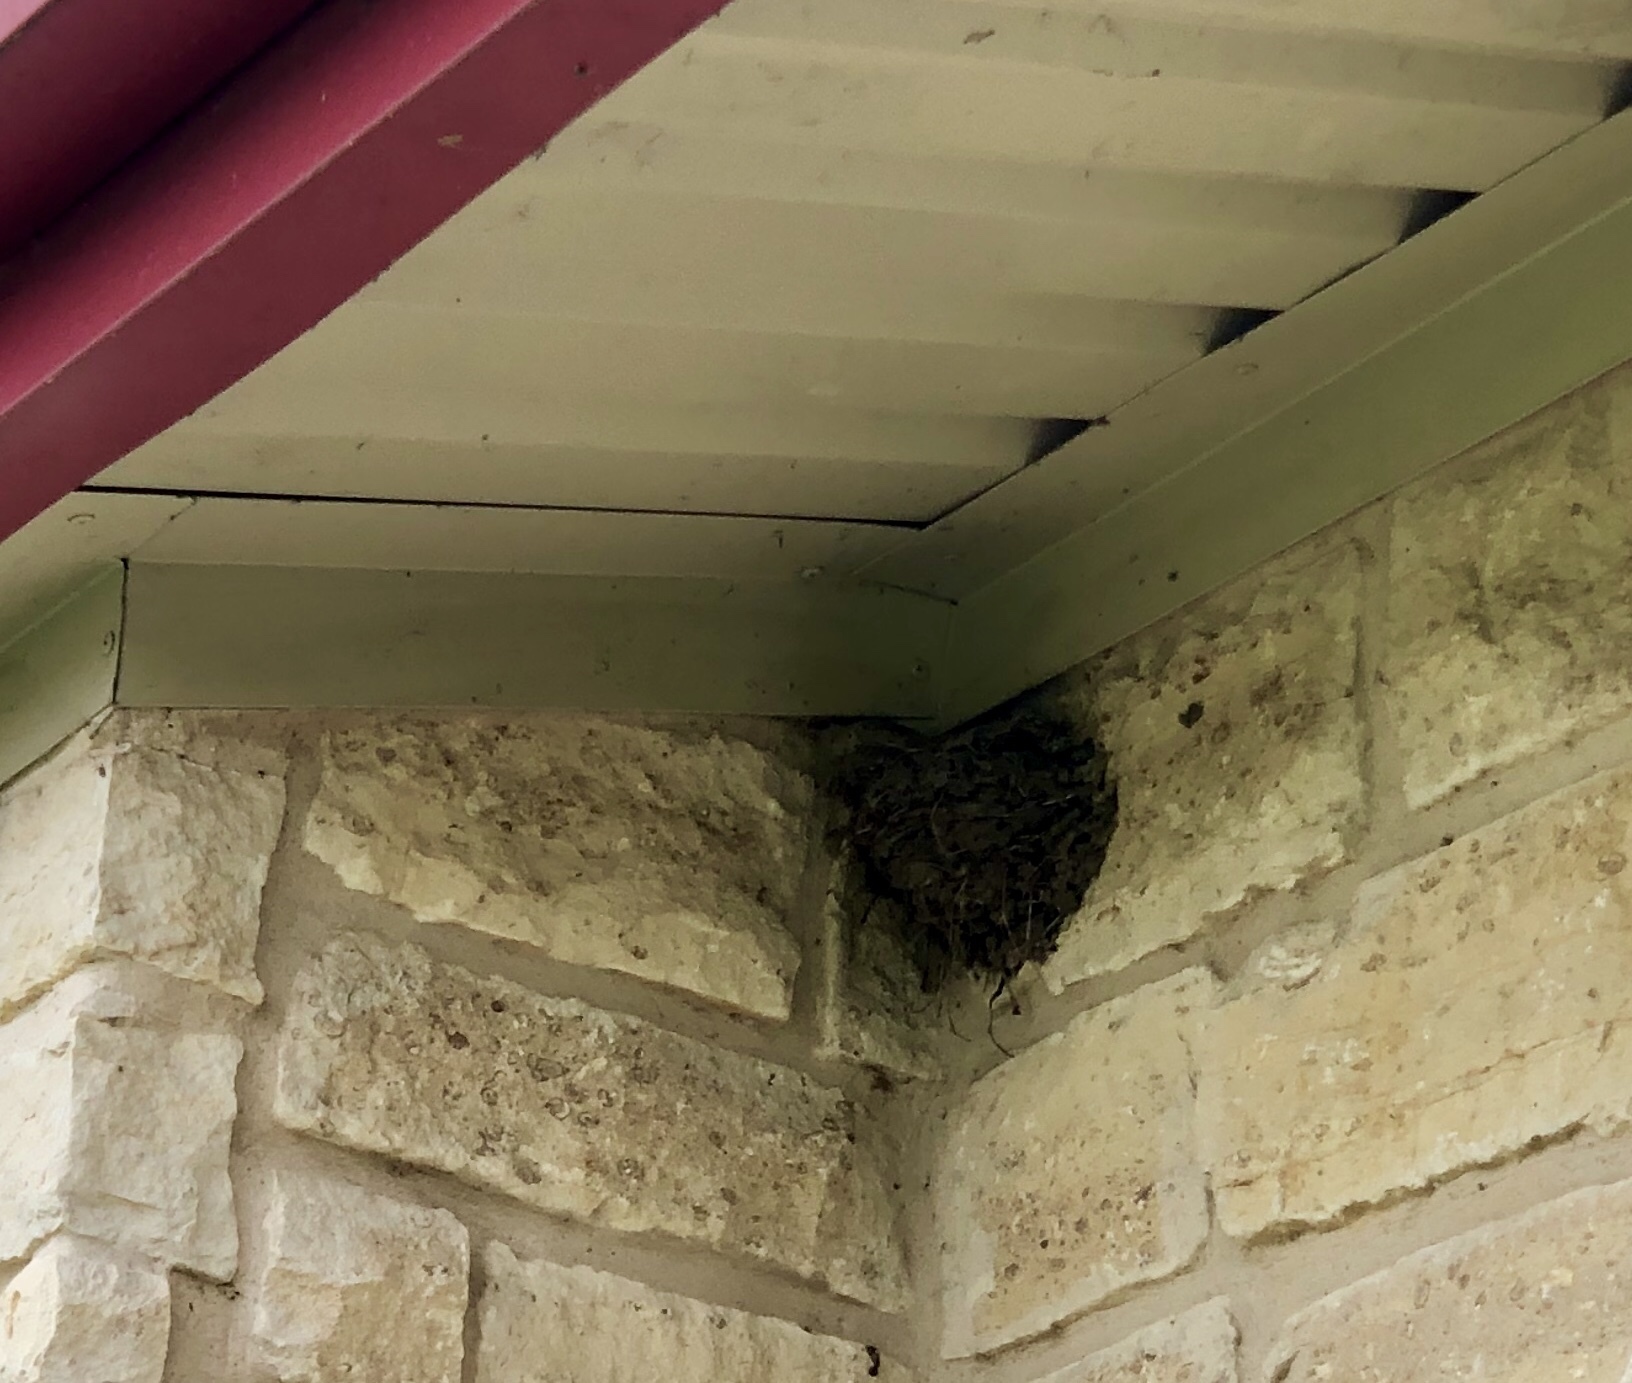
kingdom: Animalia
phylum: Chordata
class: Aves
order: Passeriformes
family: Hirundinidae
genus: Hirundo
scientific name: Hirundo rustica
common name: Barn swallow
